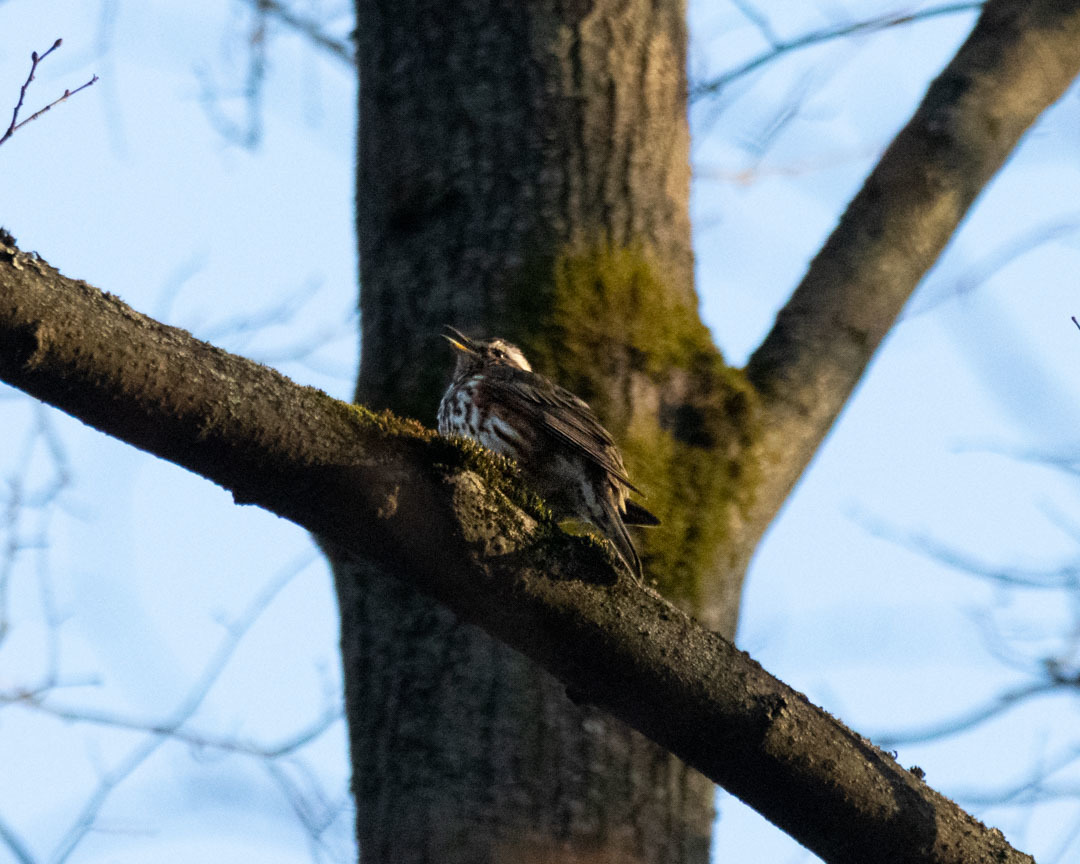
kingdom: Animalia
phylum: Chordata
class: Aves
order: Passeriformes
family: Turdidae
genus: Turdus
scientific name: Turdus iliacus
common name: Redwing
